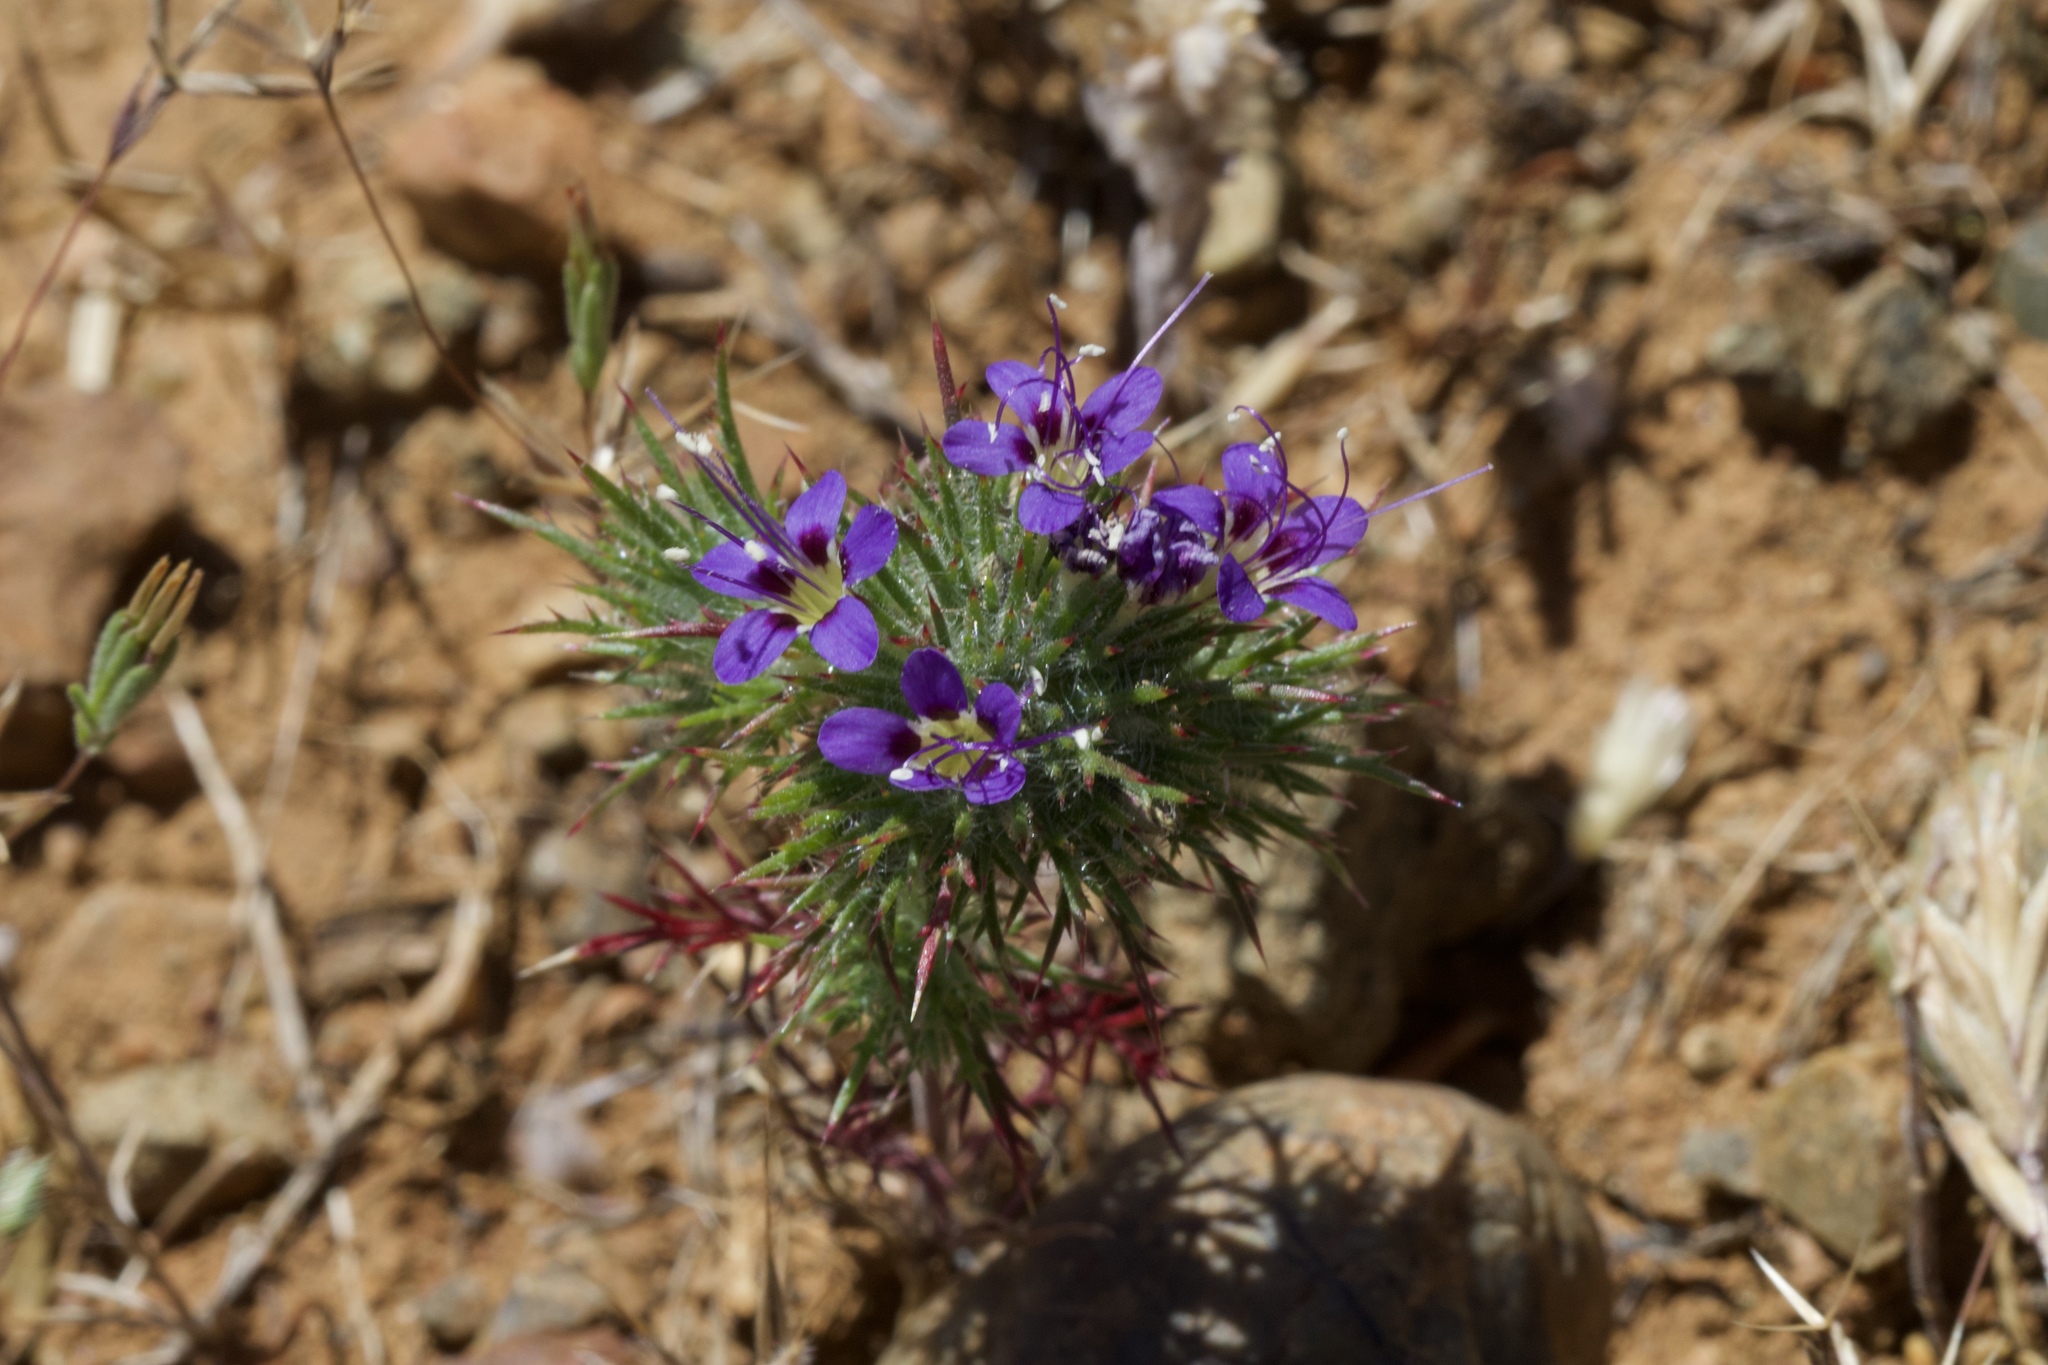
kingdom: Plantae
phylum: Tracheophyta
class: Magnoliopsida
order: Ericales
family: Polemoniaceae
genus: Navarretia
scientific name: Navarretia jepsonii
